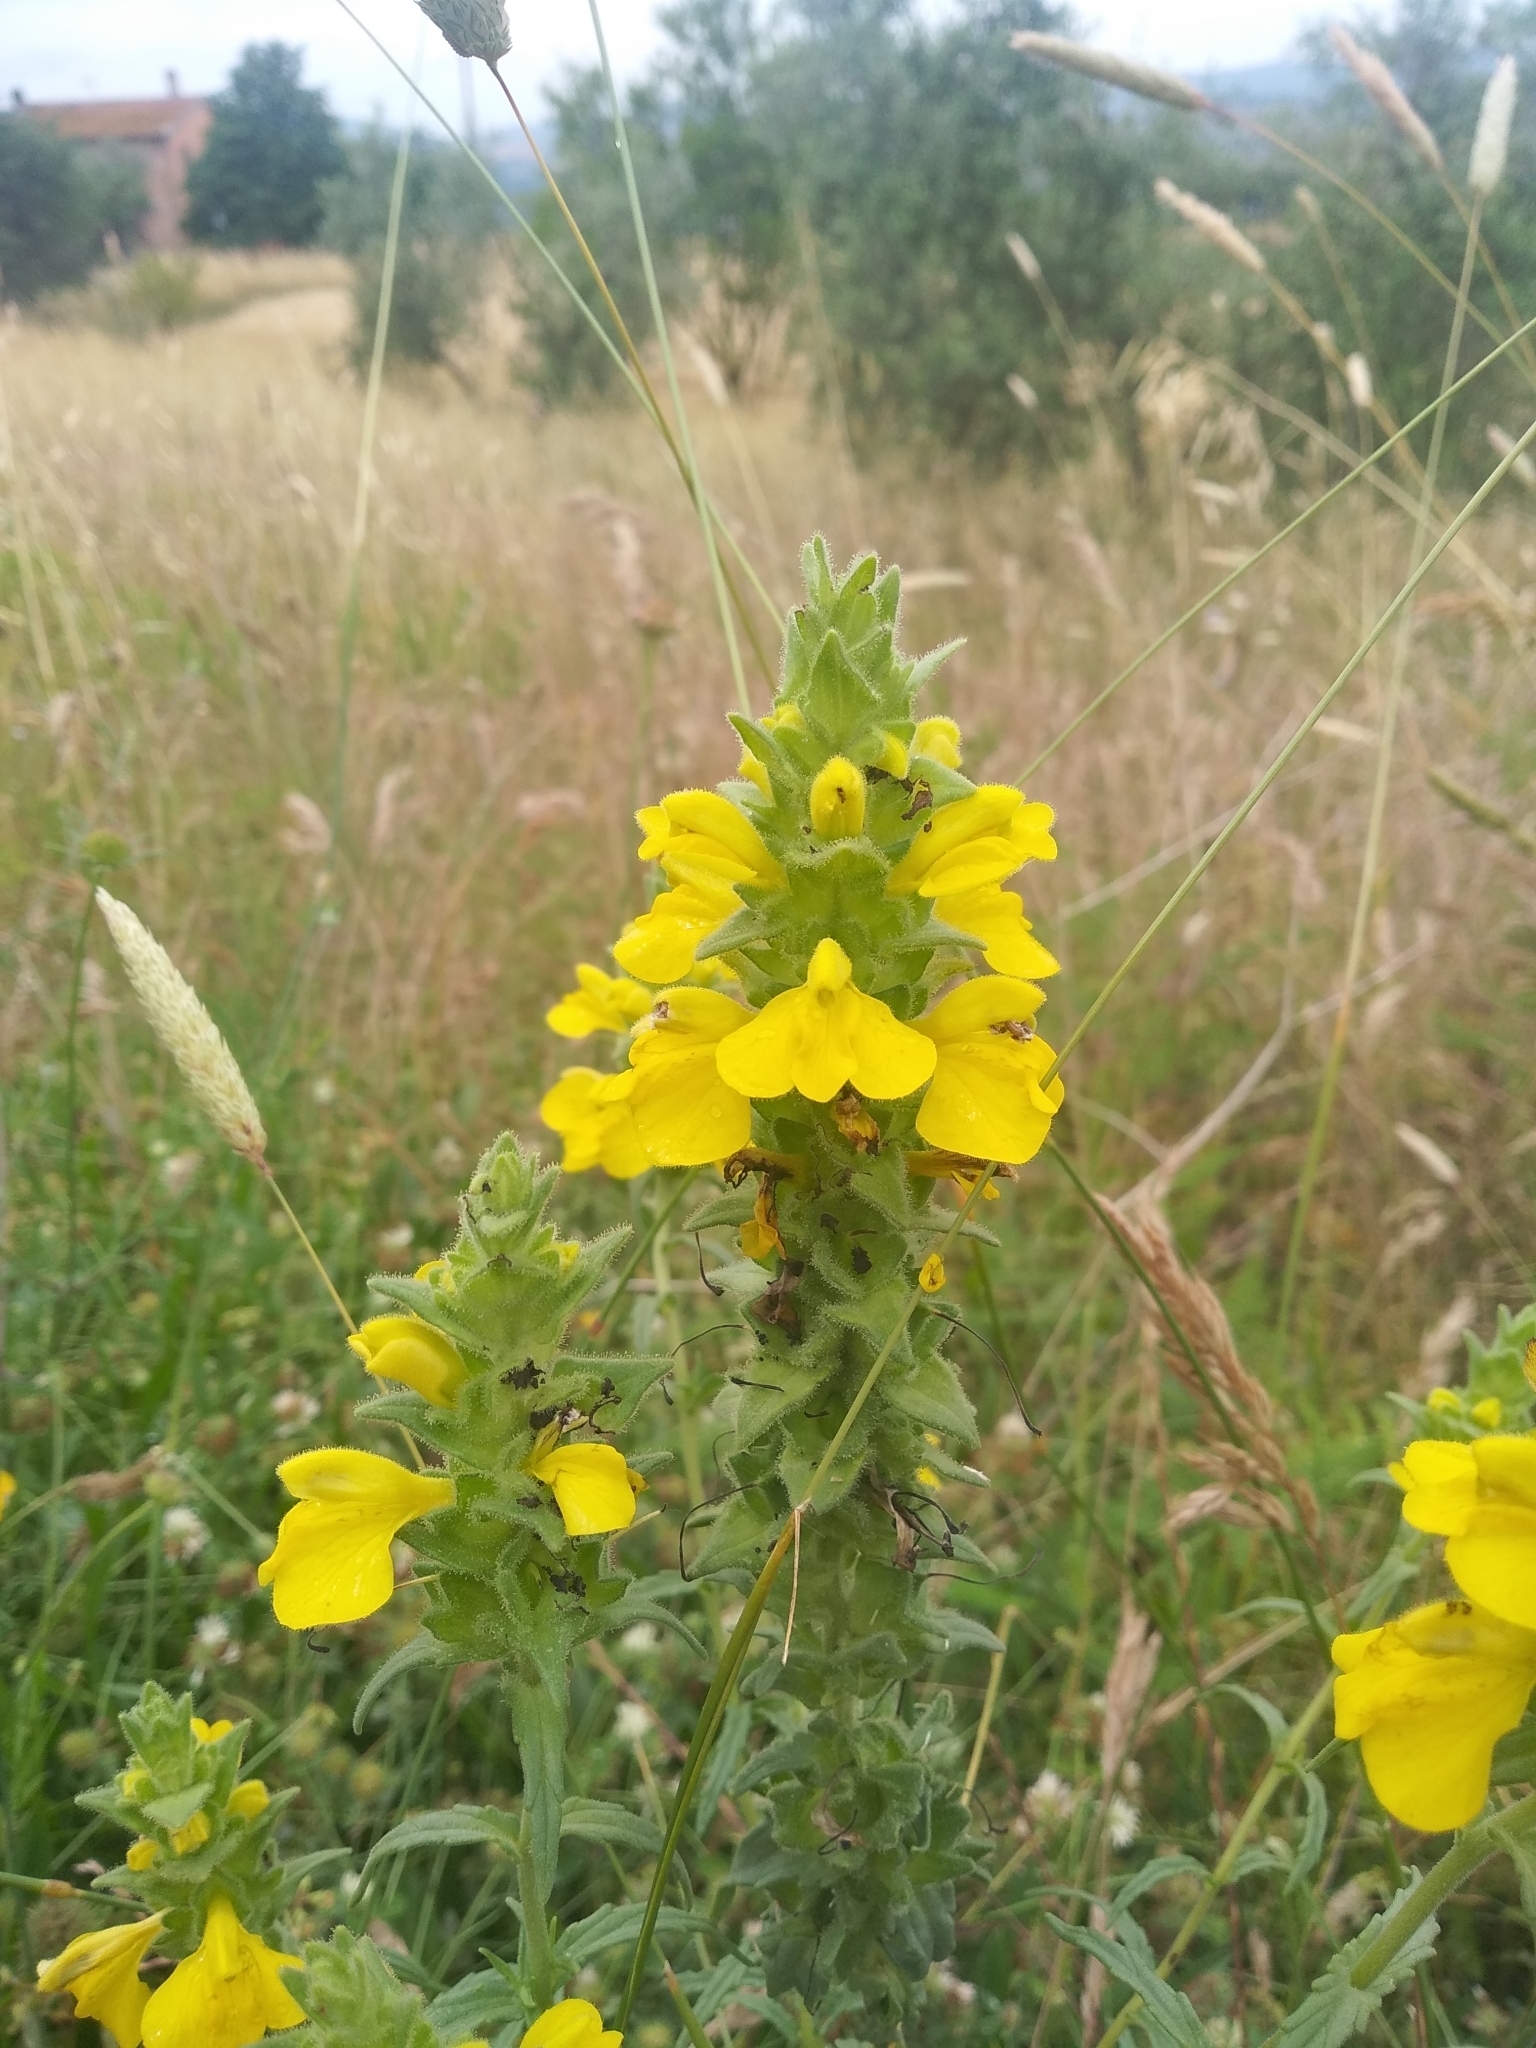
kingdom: Plantae
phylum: Tracheophyta
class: Magnoliopsida
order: Lamiales
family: Orobanchaceae
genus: Bellardia
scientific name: Bellardia trixago
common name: Mediterranean lineseed
